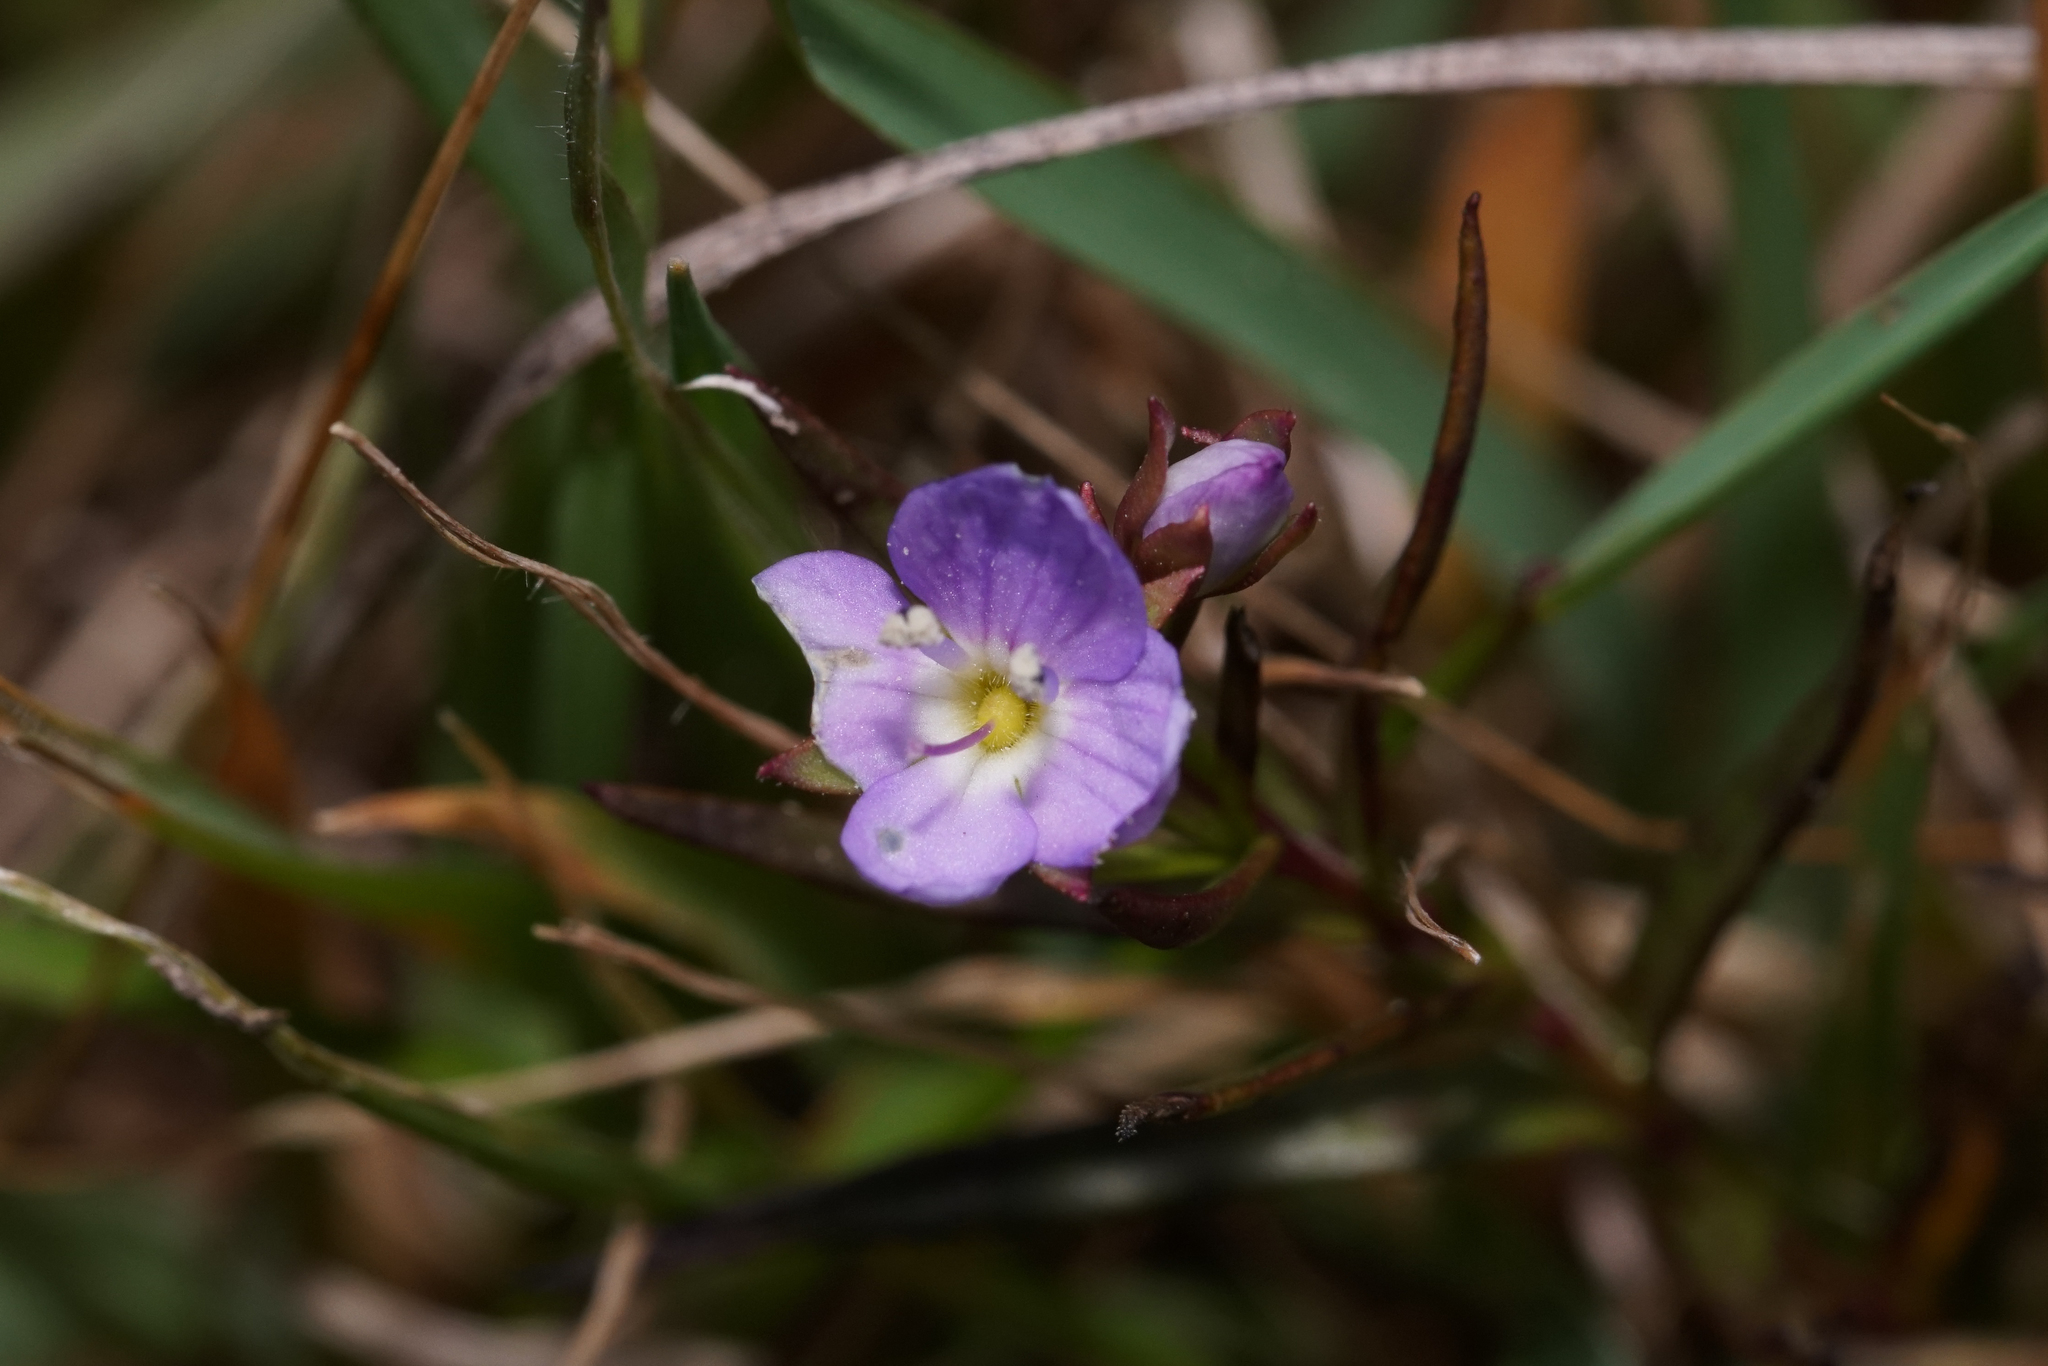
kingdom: Plantae
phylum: Tracheophyta
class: Magnoliopsida
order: Lamiales
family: Plantaginaceae
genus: Veronica
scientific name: Veronica gracilis
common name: Slender speedwell
